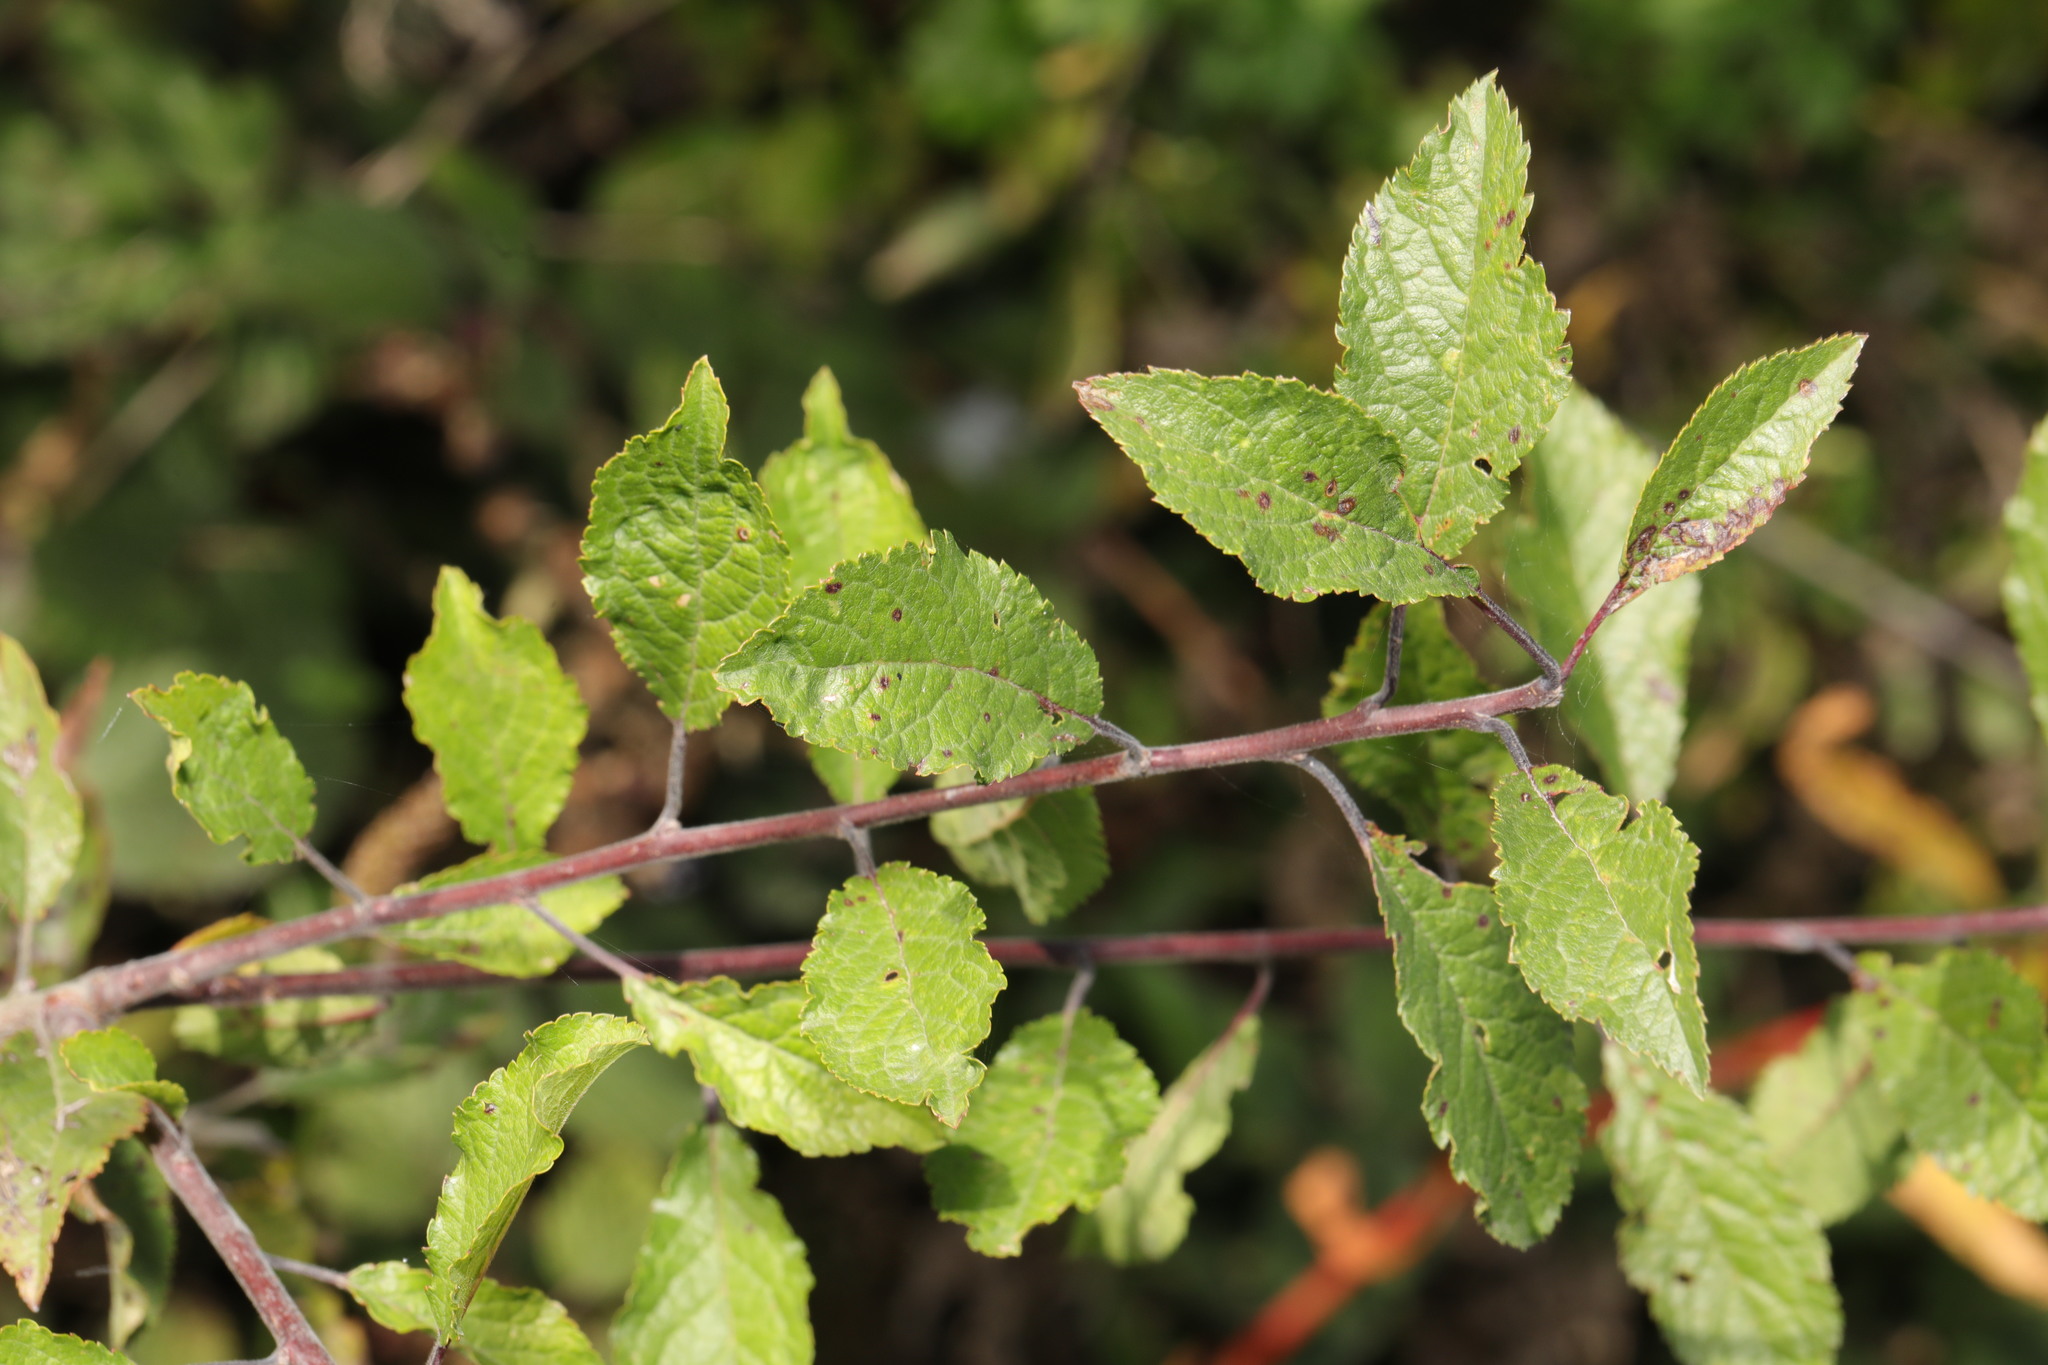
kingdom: Plantae
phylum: Tracheophyta
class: Magnoliopsida
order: Rosales
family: Rosaceae
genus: Prunus
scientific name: Prunus spinosa
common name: Blackthorn
